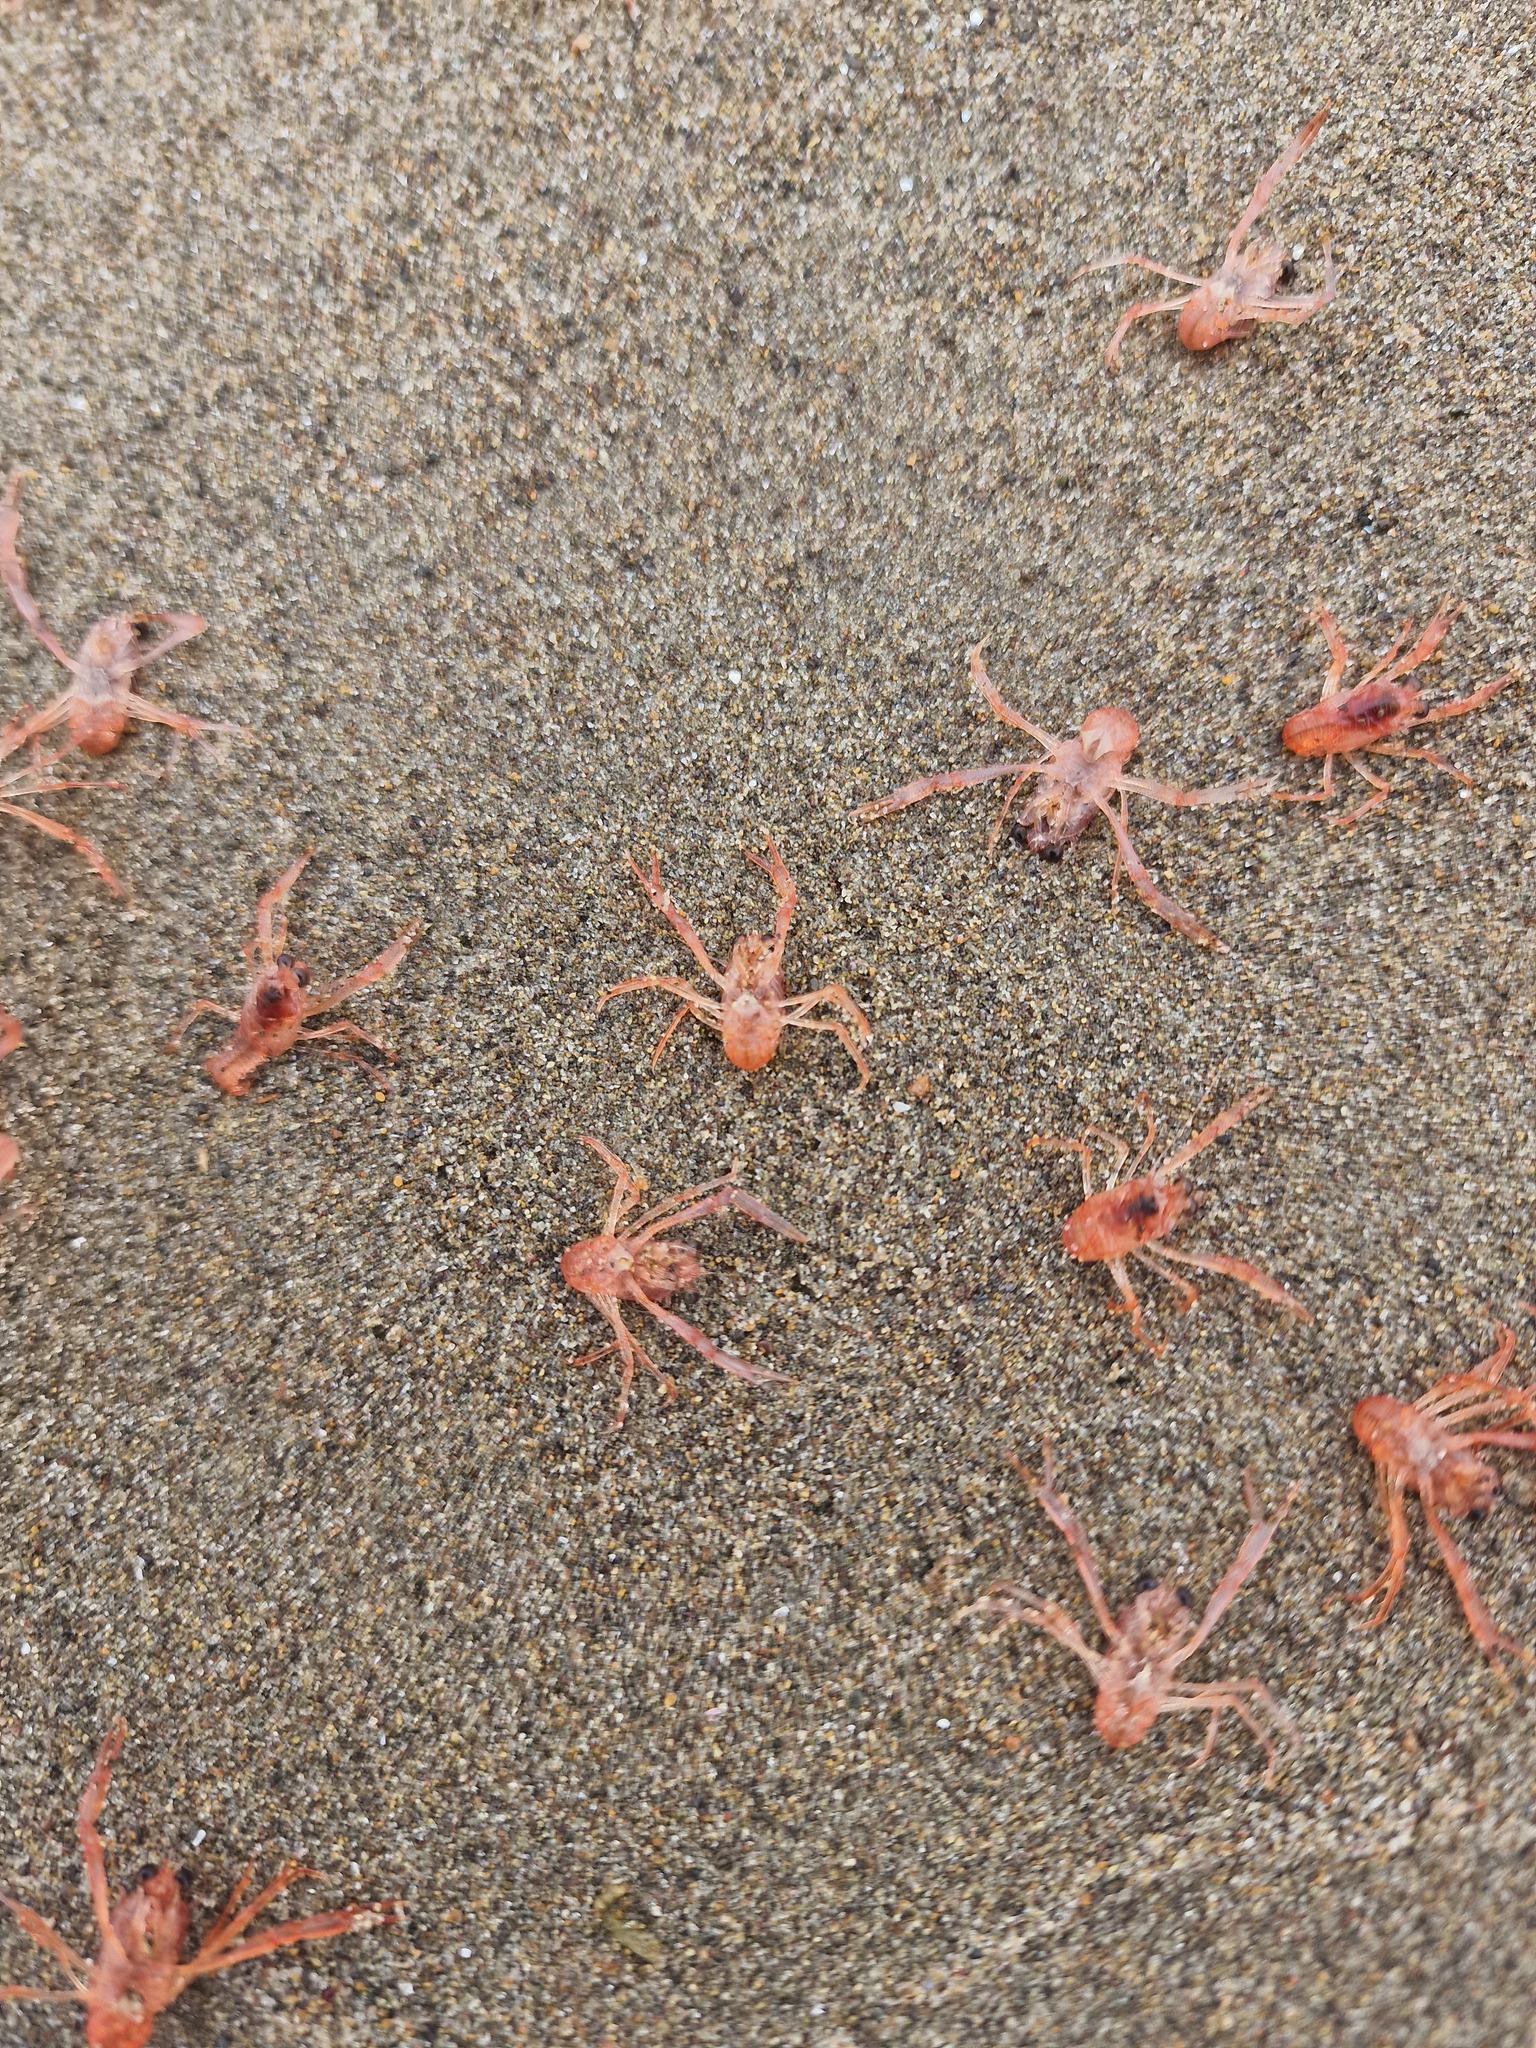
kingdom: Animalia
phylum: Arthropoda
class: Malacostraca
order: Decapoda
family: Munididae
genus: Grimothea
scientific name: Grimothea monodon
